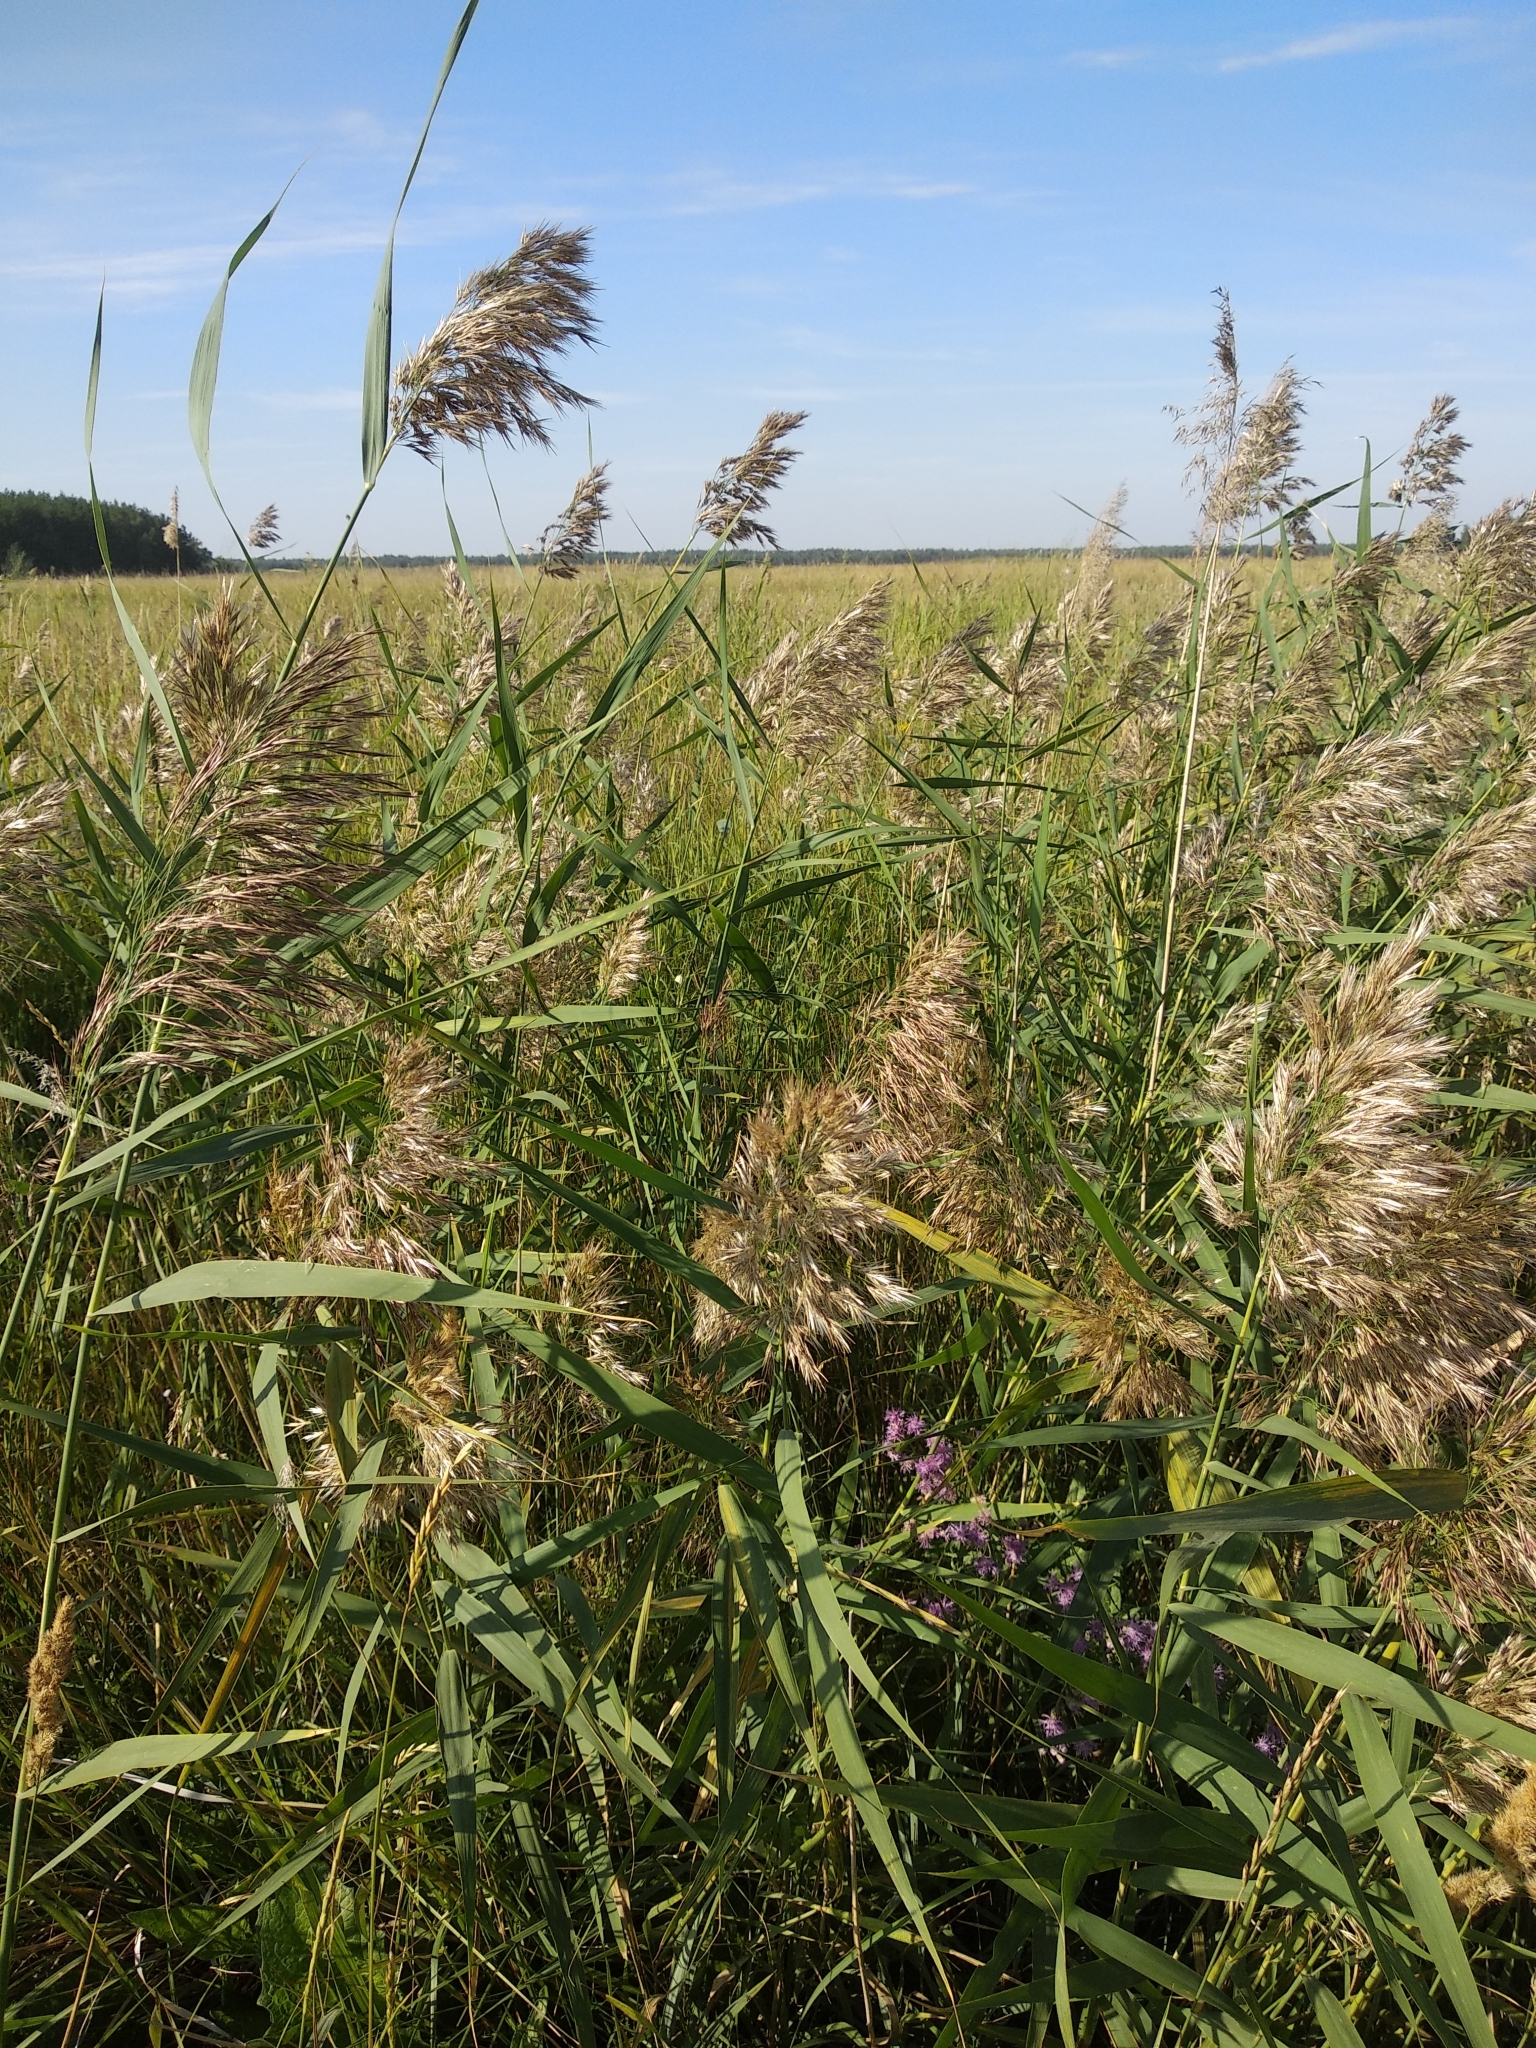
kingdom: Plantae
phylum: Tracheophyta
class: Liliopsida
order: Poales
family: Poaceae
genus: Phragmites
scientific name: Phragmites australis
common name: Common reed
